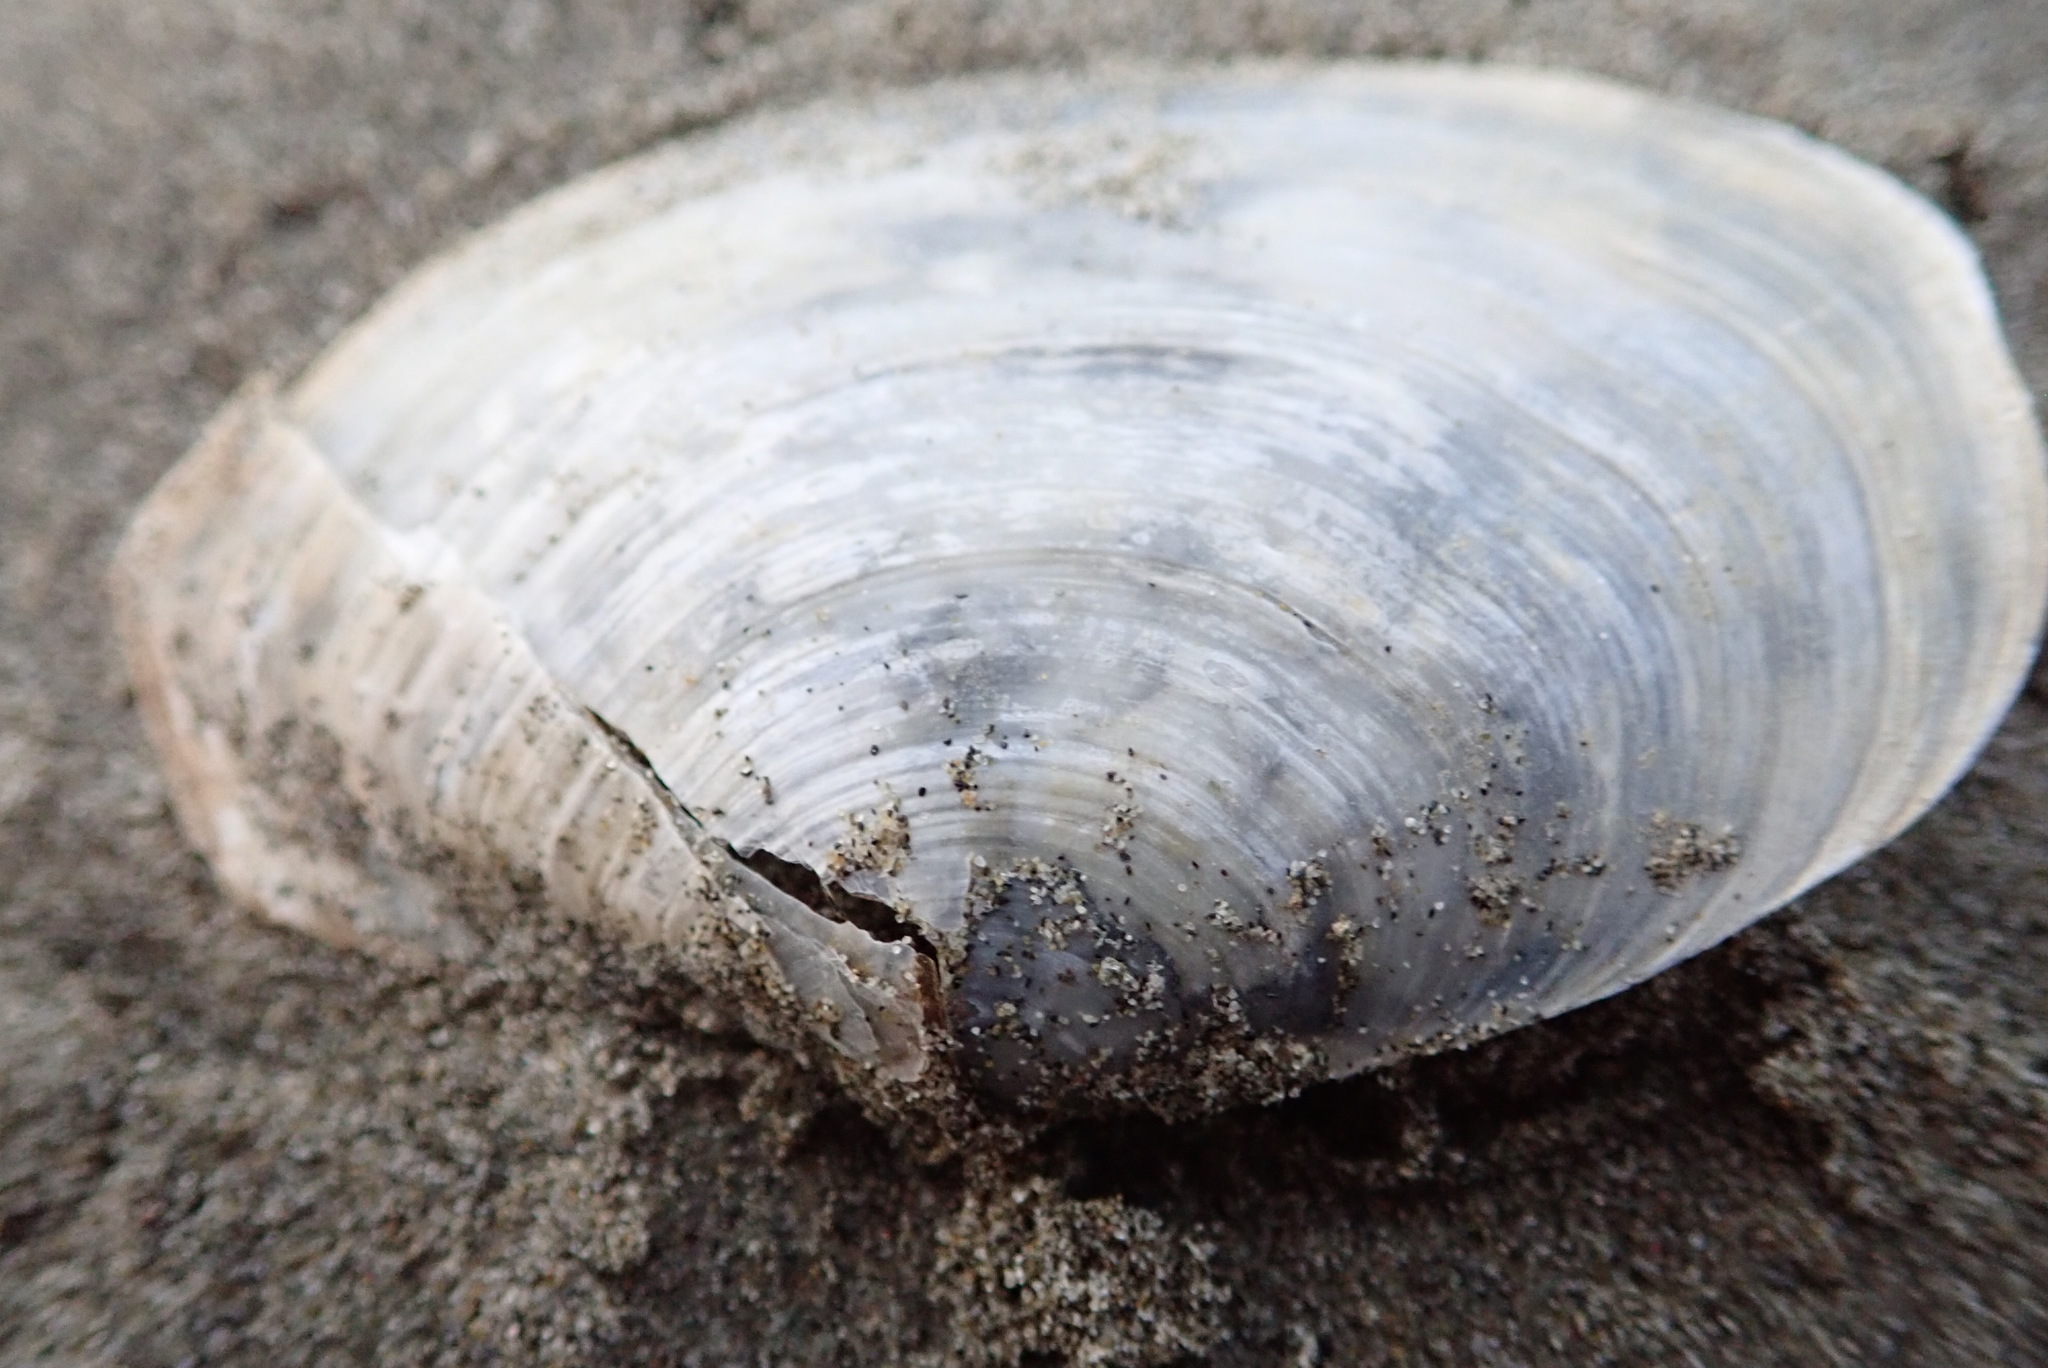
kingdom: Animalia
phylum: Mollusca
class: Bivalvia
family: Periplomatidae
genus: Offadesma
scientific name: Offadesma angasi
